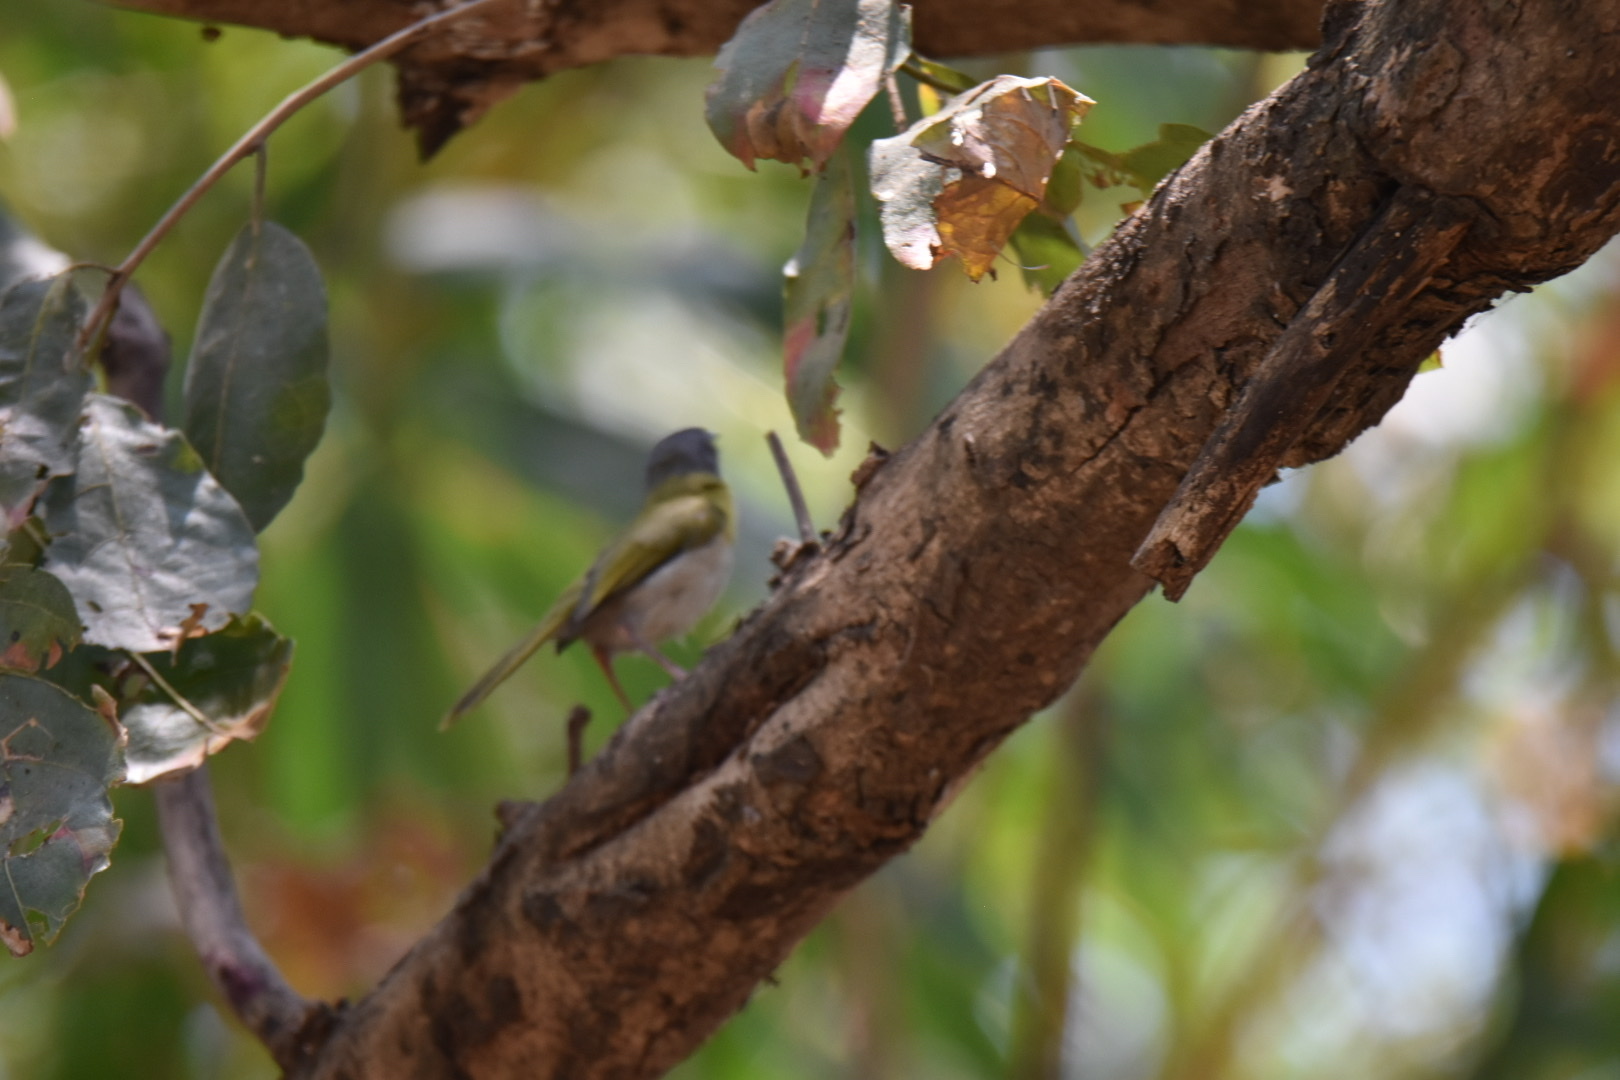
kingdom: Animalia
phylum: Chordata
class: Aves
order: Passeriformes
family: Cisticolidae
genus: Apalis
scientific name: Apalis flavida
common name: Yellow-breasted apalis
